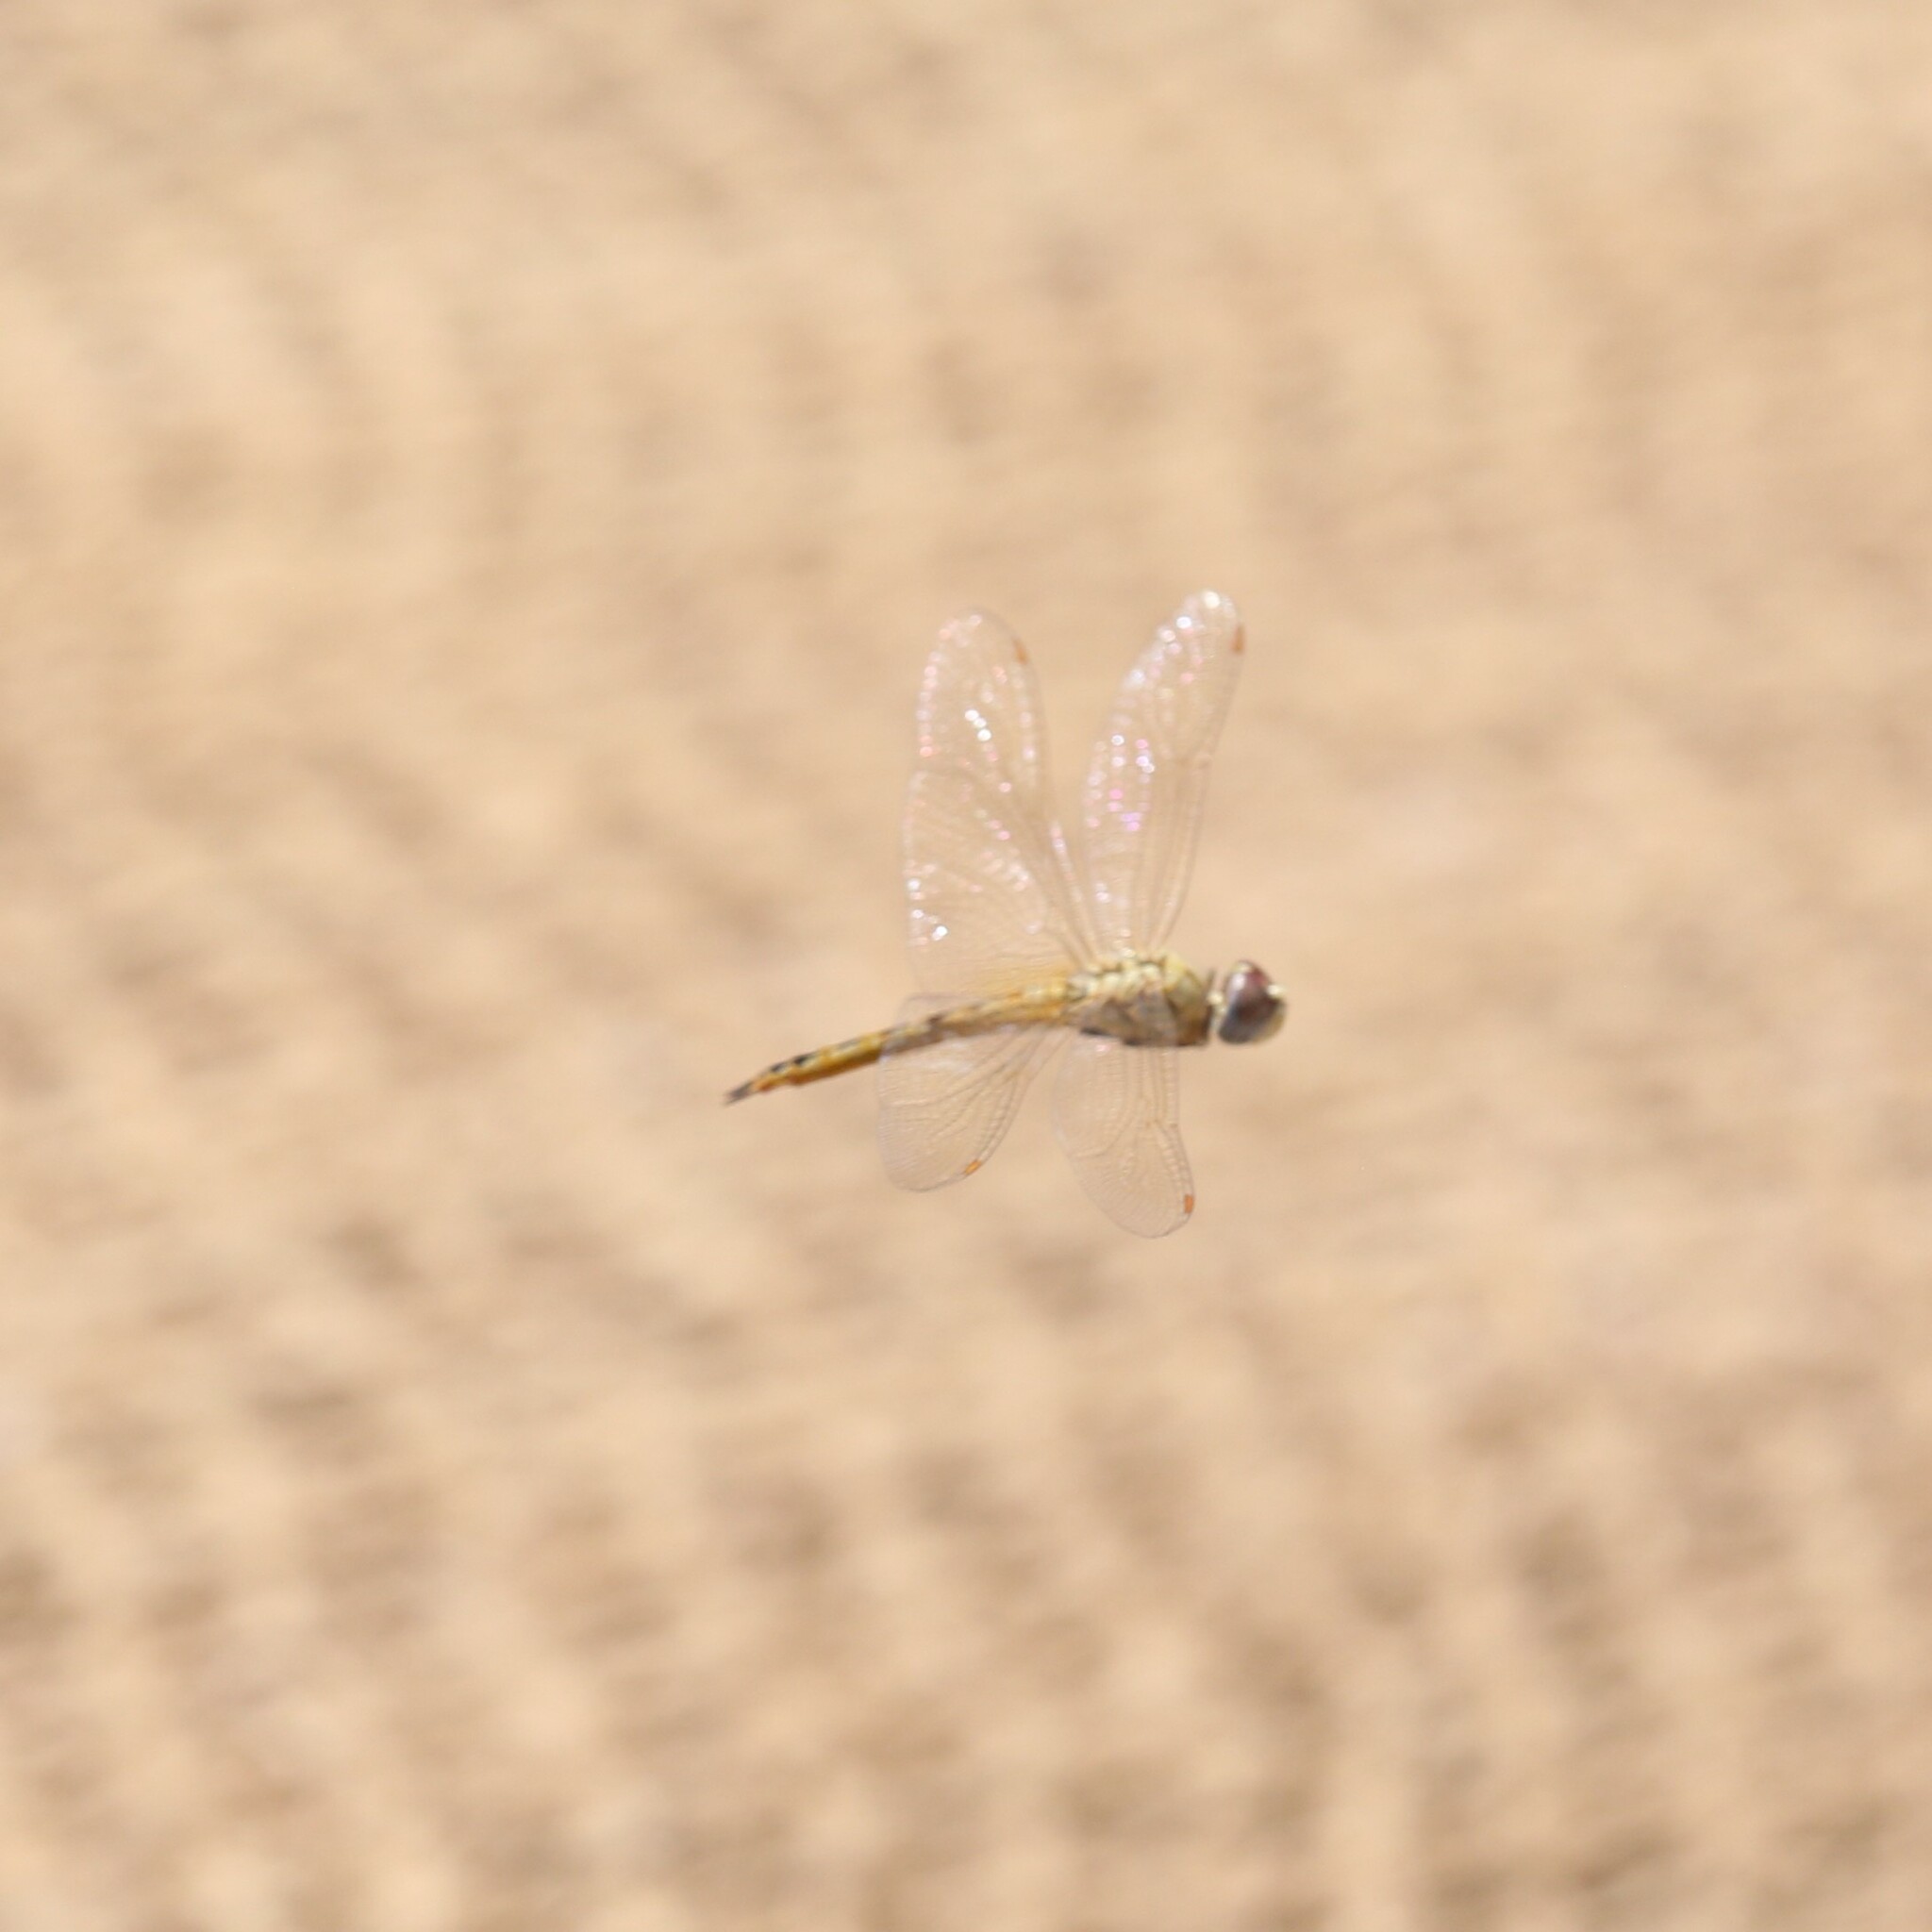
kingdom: Animalia
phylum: Arthropoda
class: Insecta
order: Odonata
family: Libellulidae
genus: Pantala
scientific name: Pantala flavescens
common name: Wandering glider
